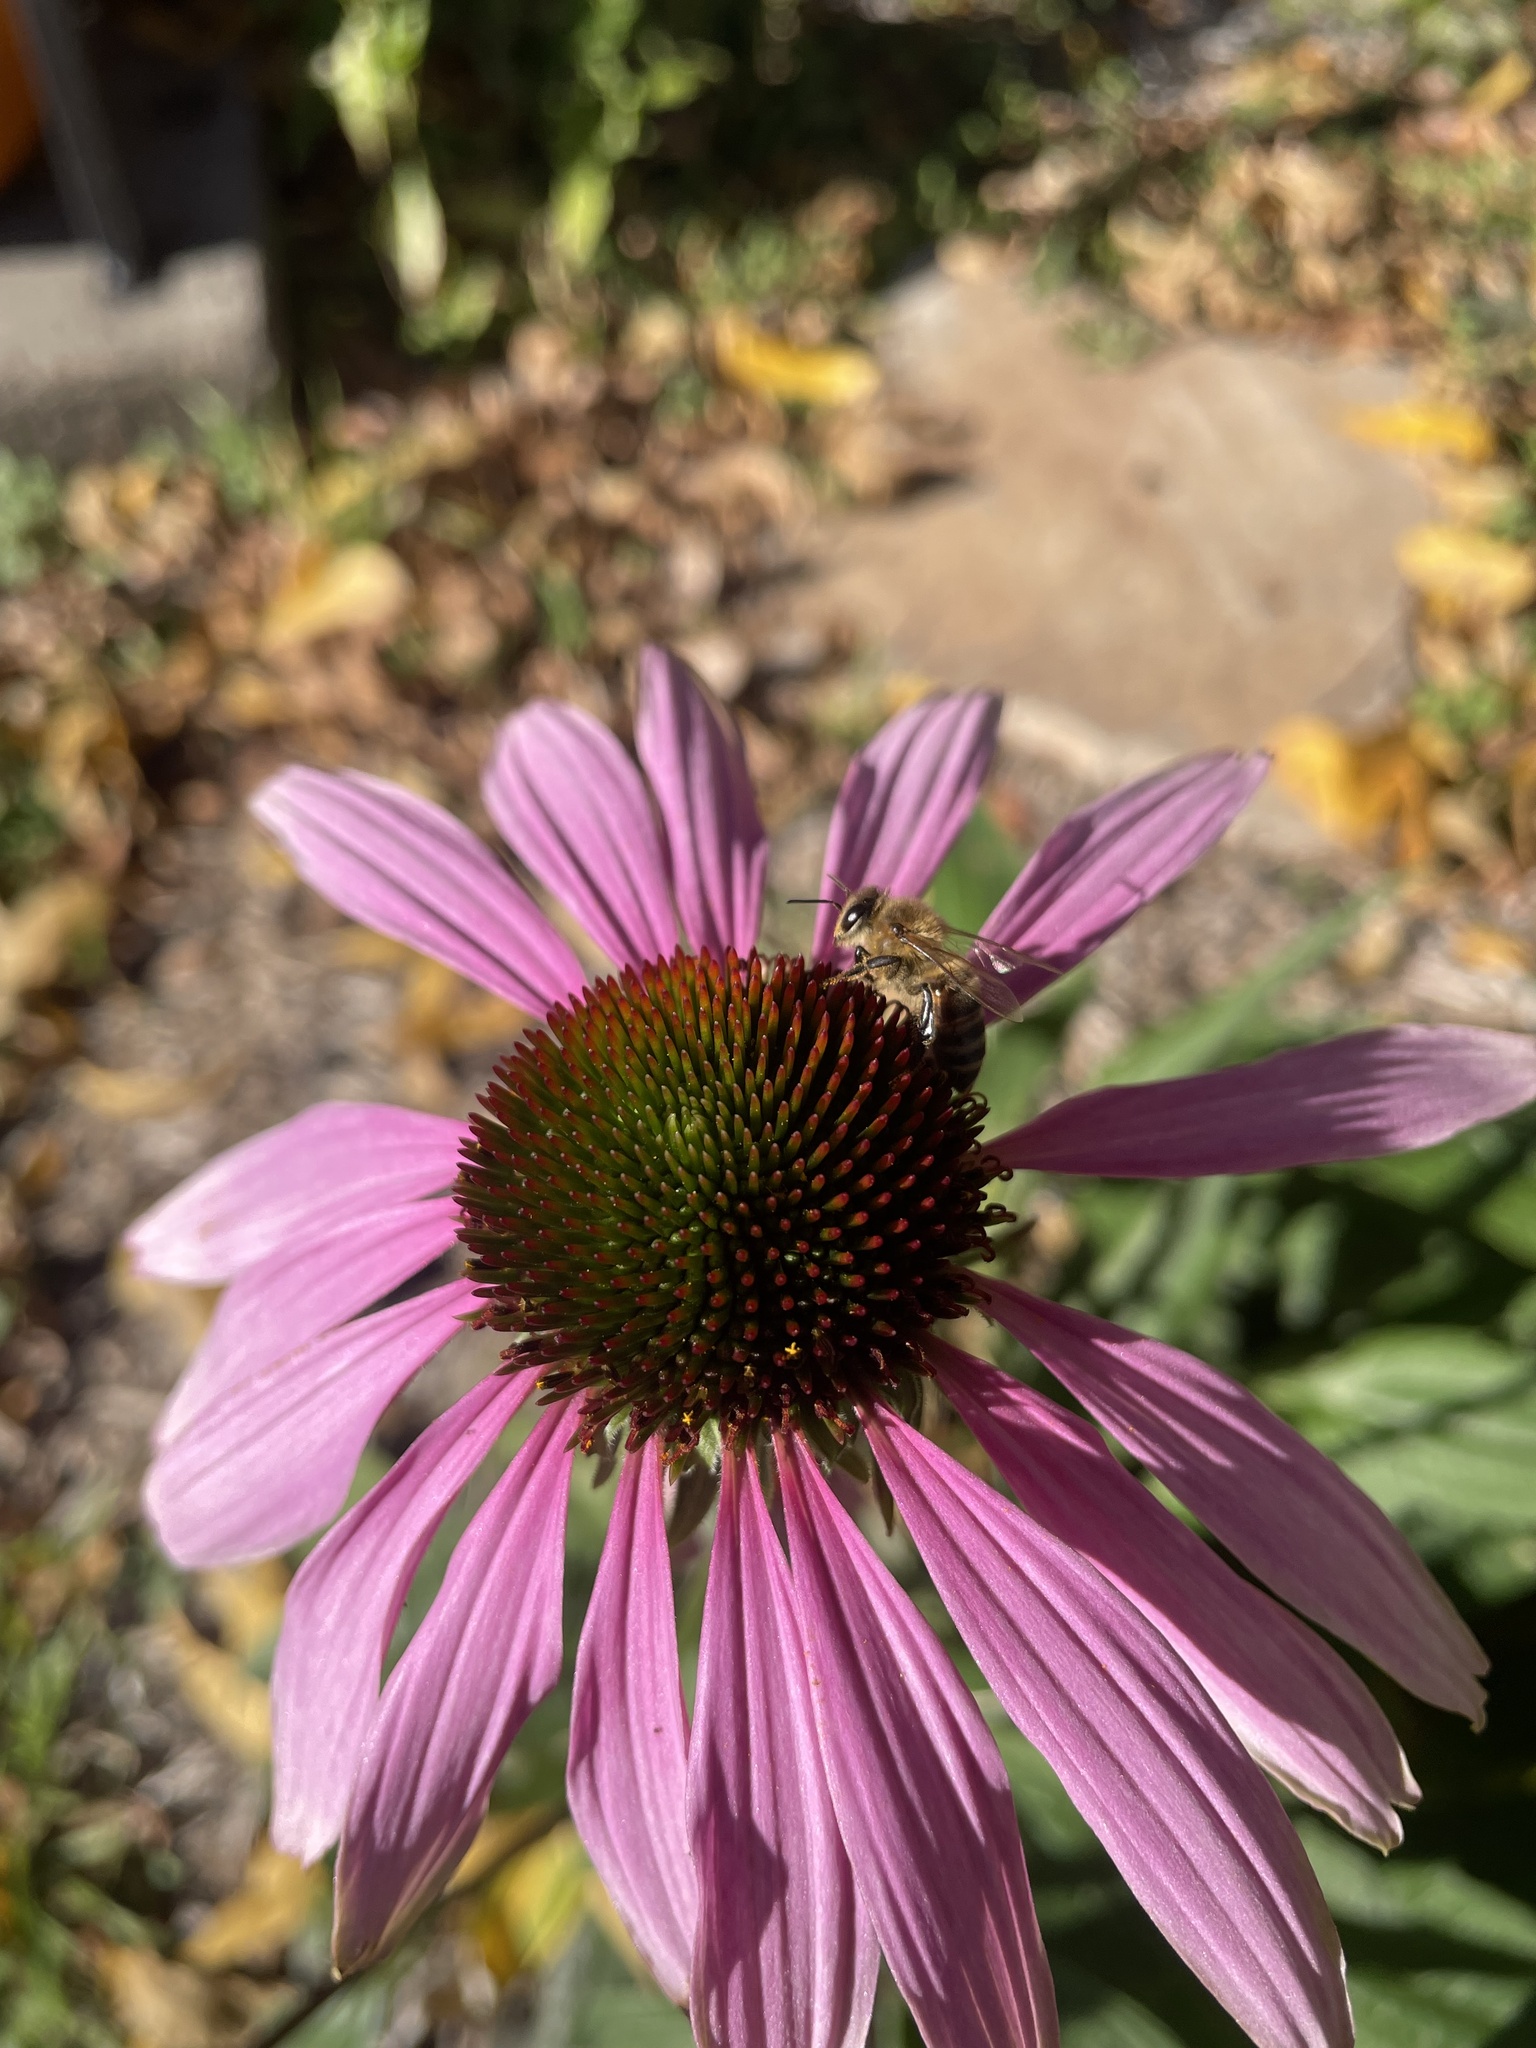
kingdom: Animalia
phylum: Arthropoda
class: Insecta
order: Hymenoptera
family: Apidae
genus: Apis
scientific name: Apis mellifera
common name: Honey bee
